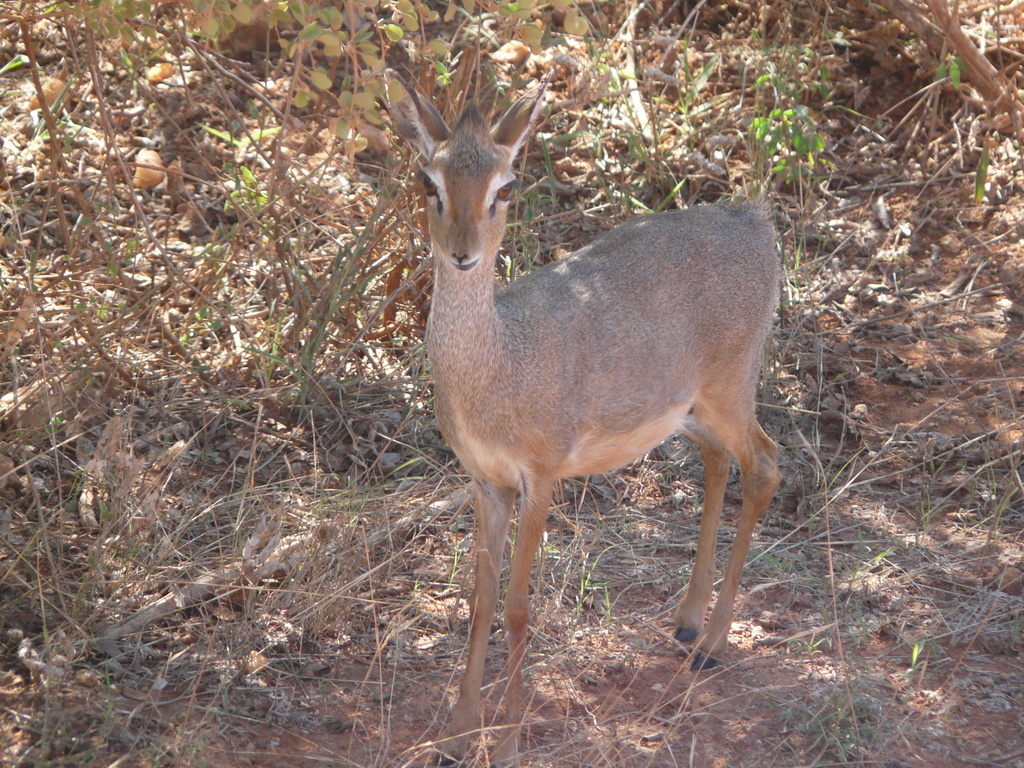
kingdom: Animalia
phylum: Chordata
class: Mammalia
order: Artiodactyla
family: Bovidae
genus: Madoqua
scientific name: Madoqua
